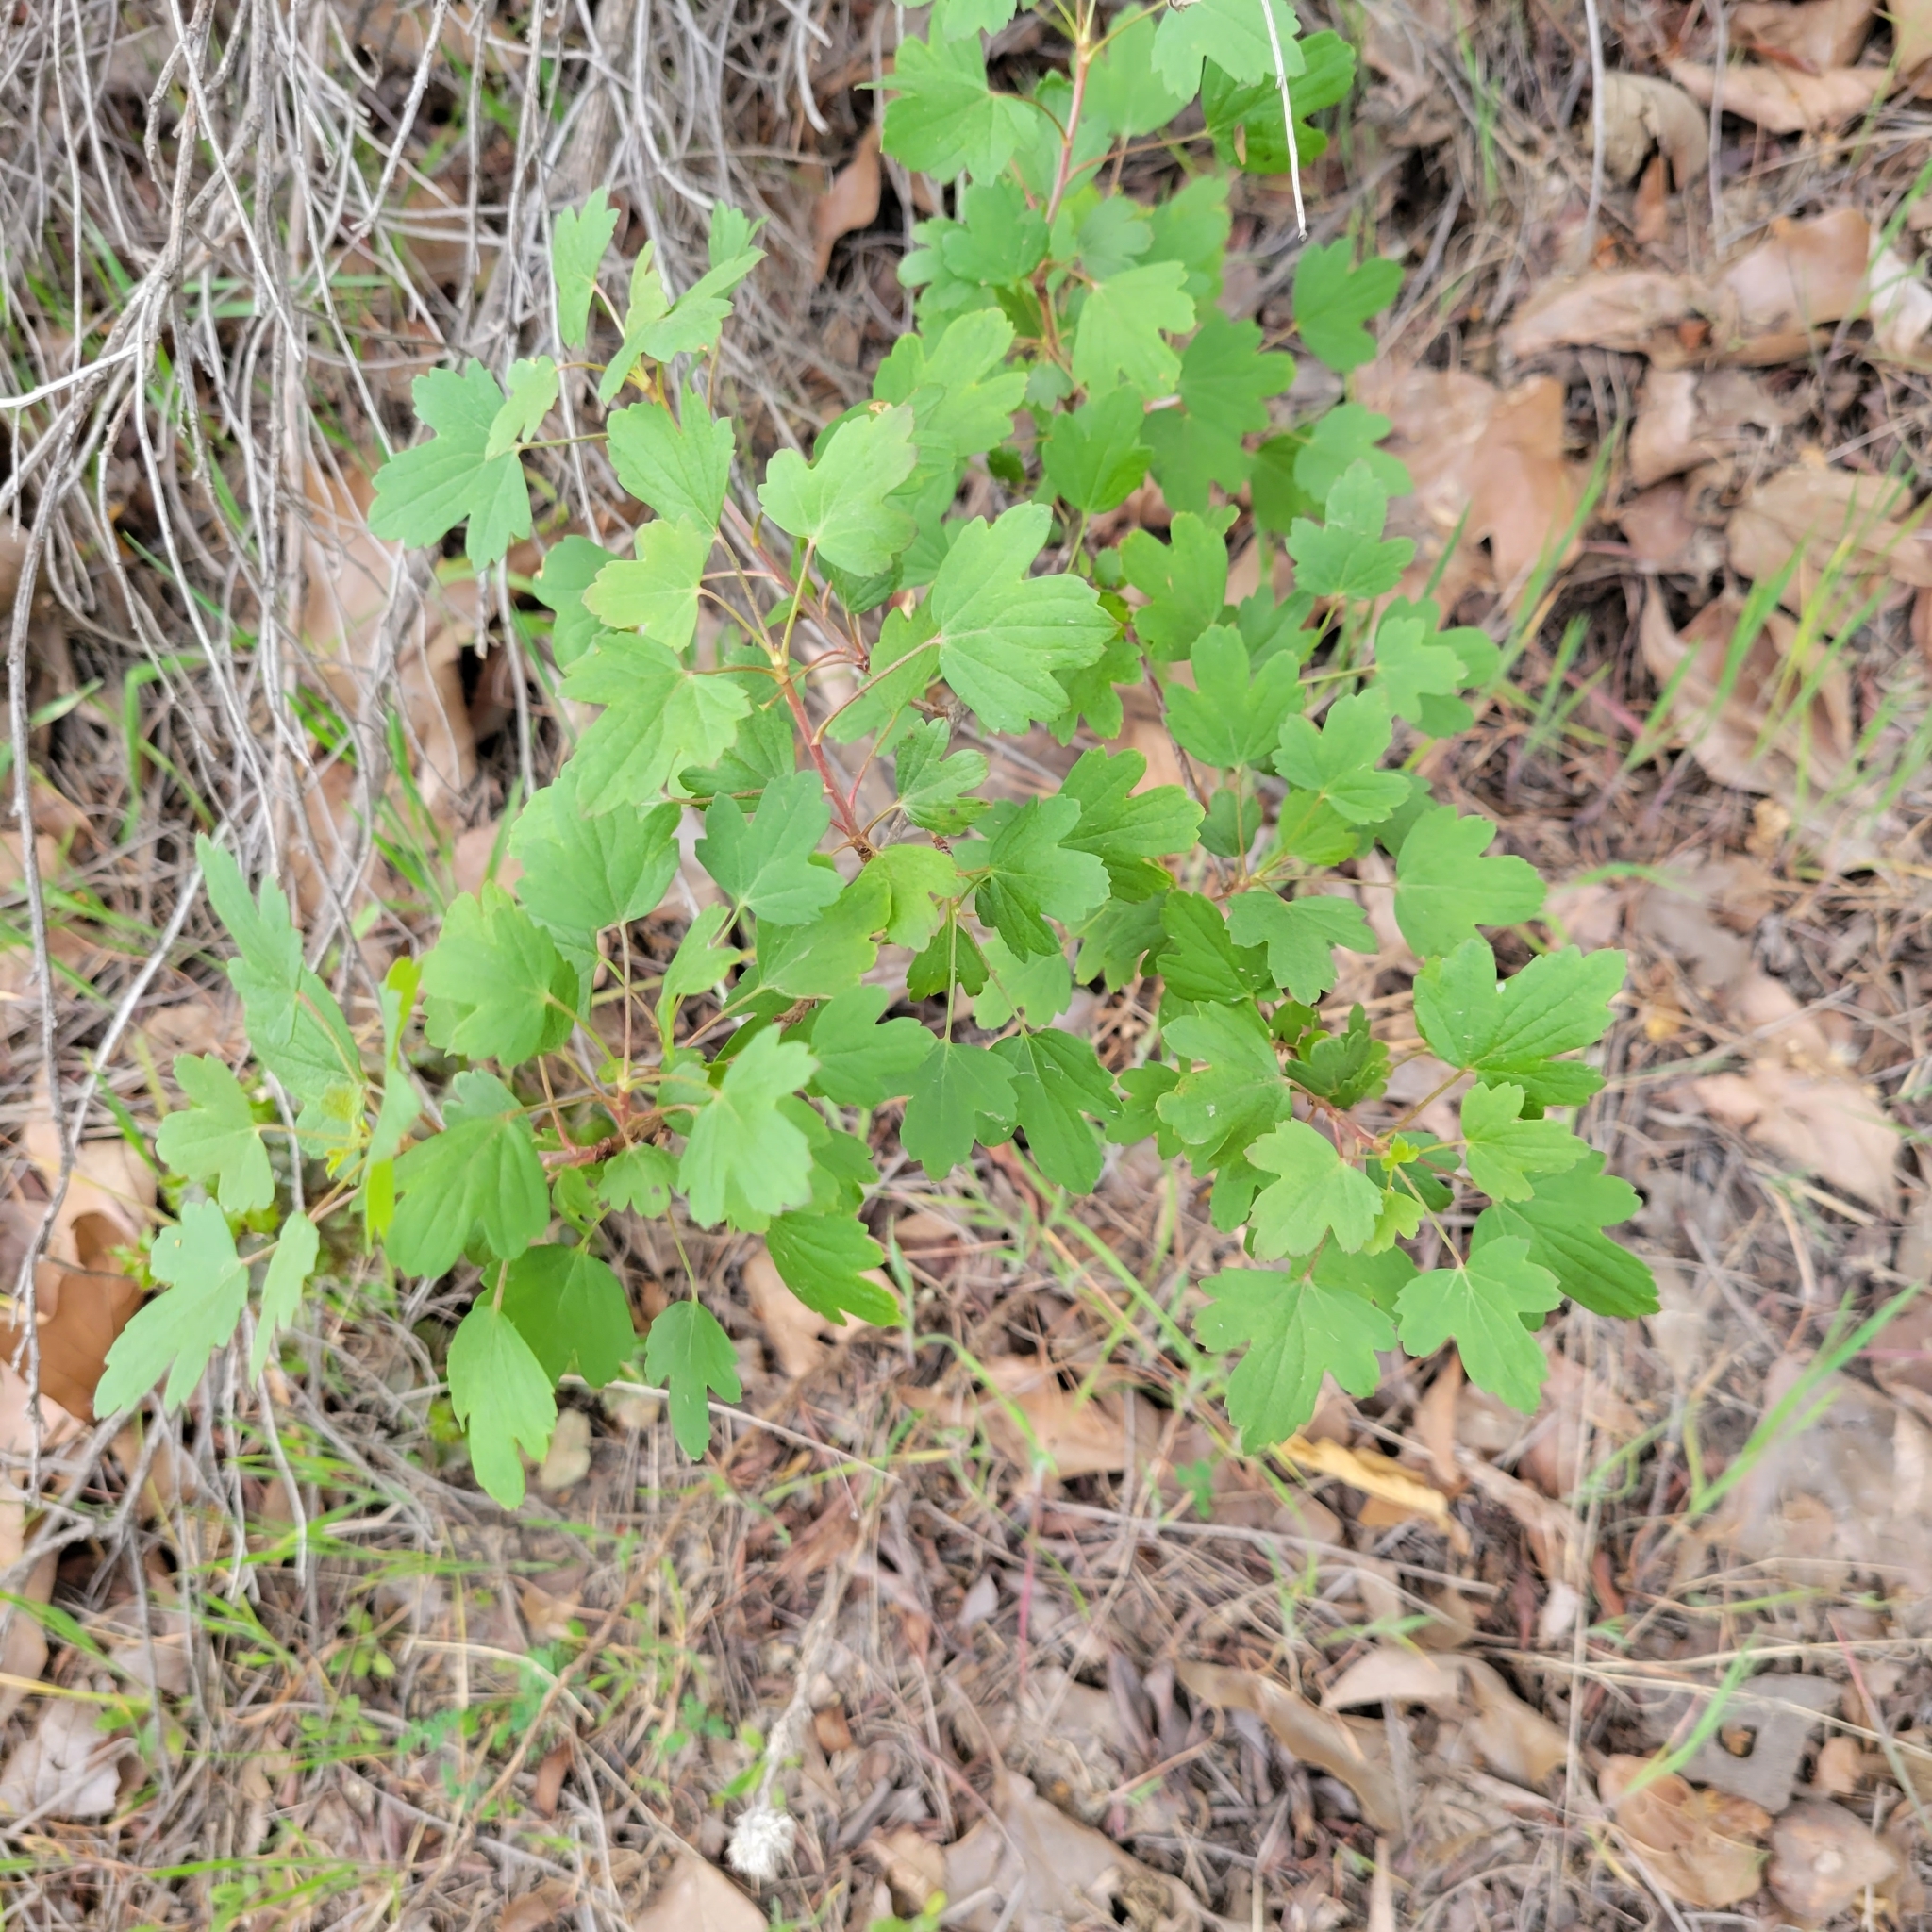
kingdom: Plantae
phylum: Tracheophyta
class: Magnoliopsida
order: Saxifragales
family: Grossulariaceae
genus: Ribes
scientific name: Ribes aureum
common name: Golden currant
